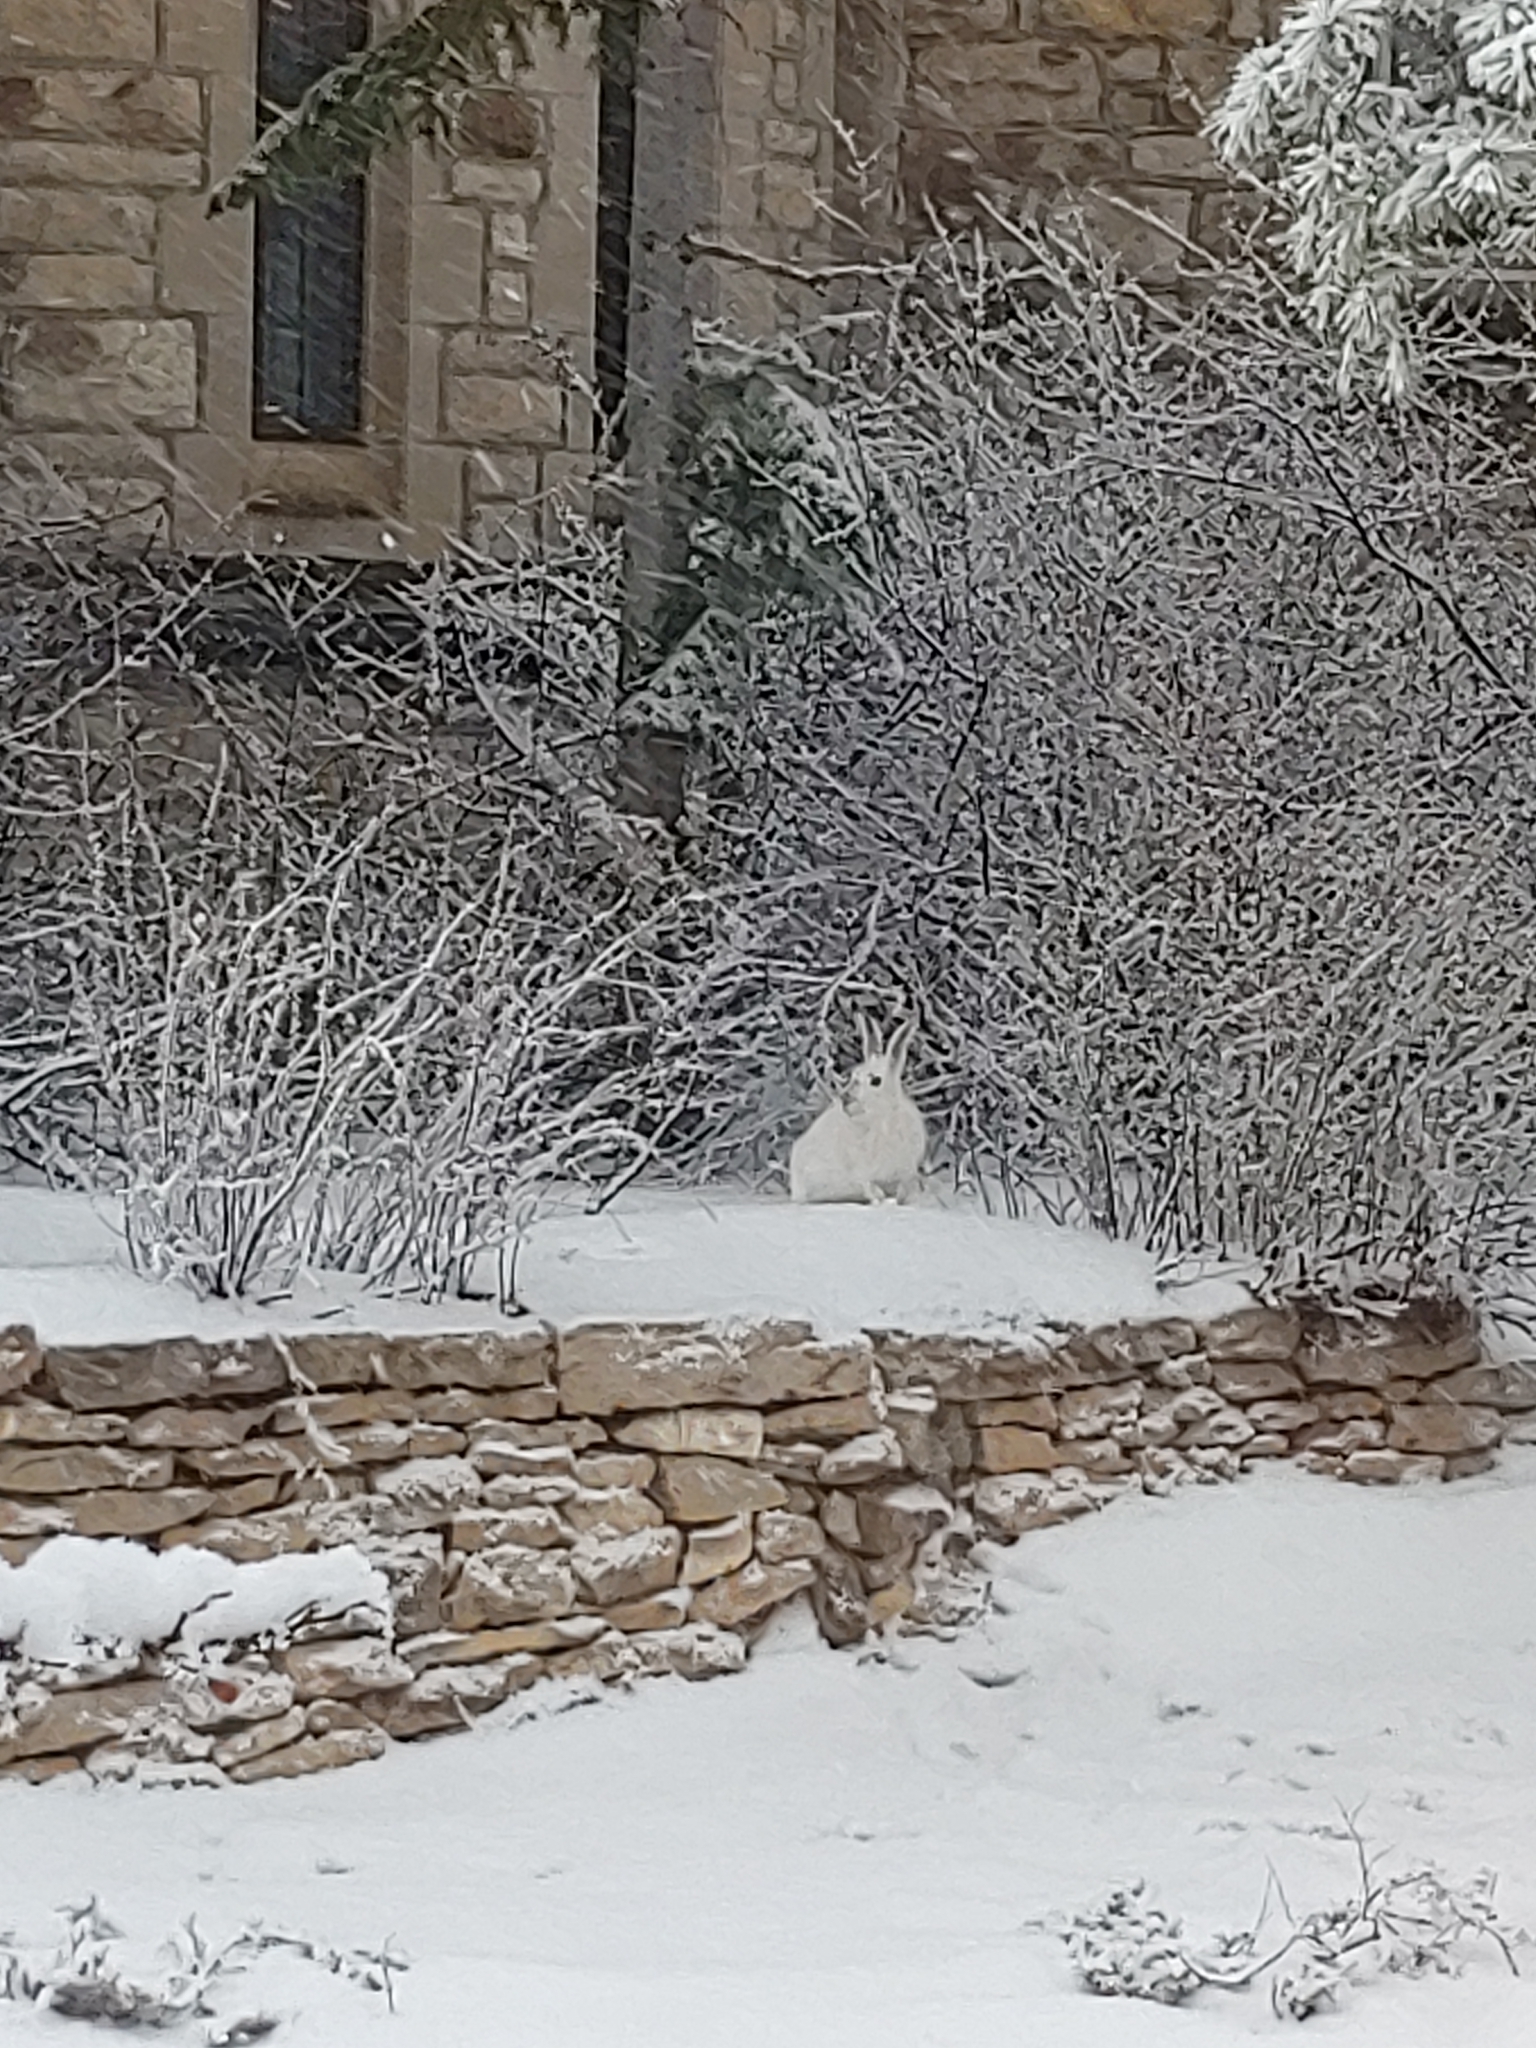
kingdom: Animalia
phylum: Chordata
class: Mammalia
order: Lagomorpha
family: Leporidae
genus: Lepus
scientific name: Lepus townsendii
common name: White-tailed jackrabbit
